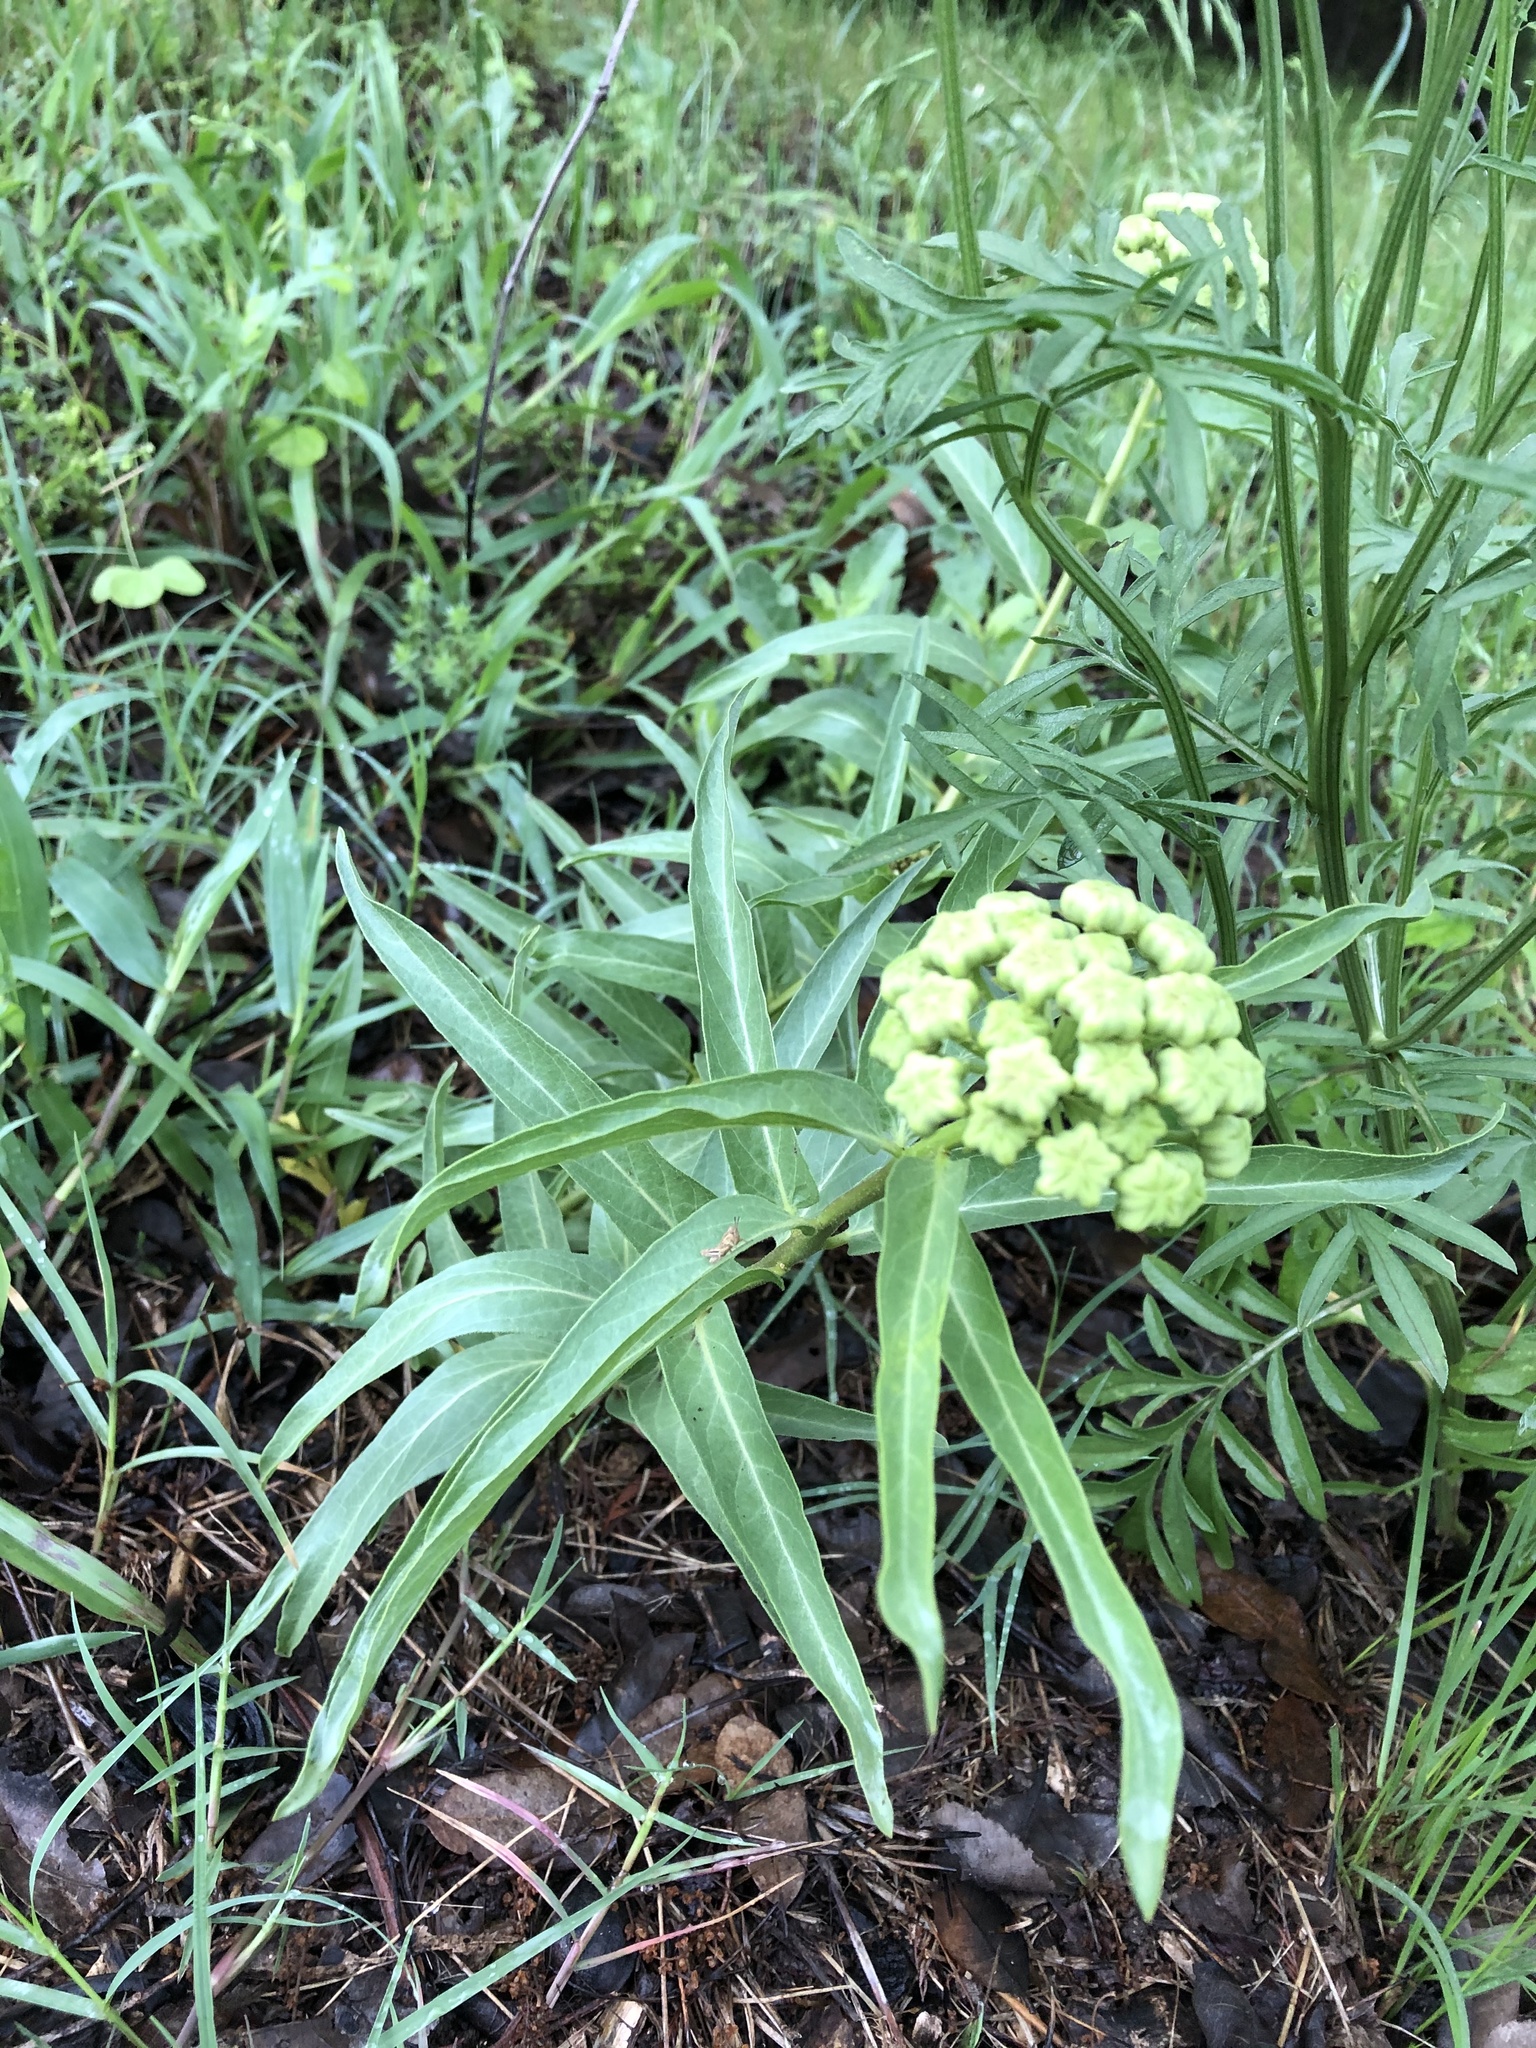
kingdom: Plantae
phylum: Tracheophyta
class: Magnoliopsida
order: Gentianales
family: Apocynaceae
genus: Asclepias
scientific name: Asclepias asperula
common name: Antelope horns
